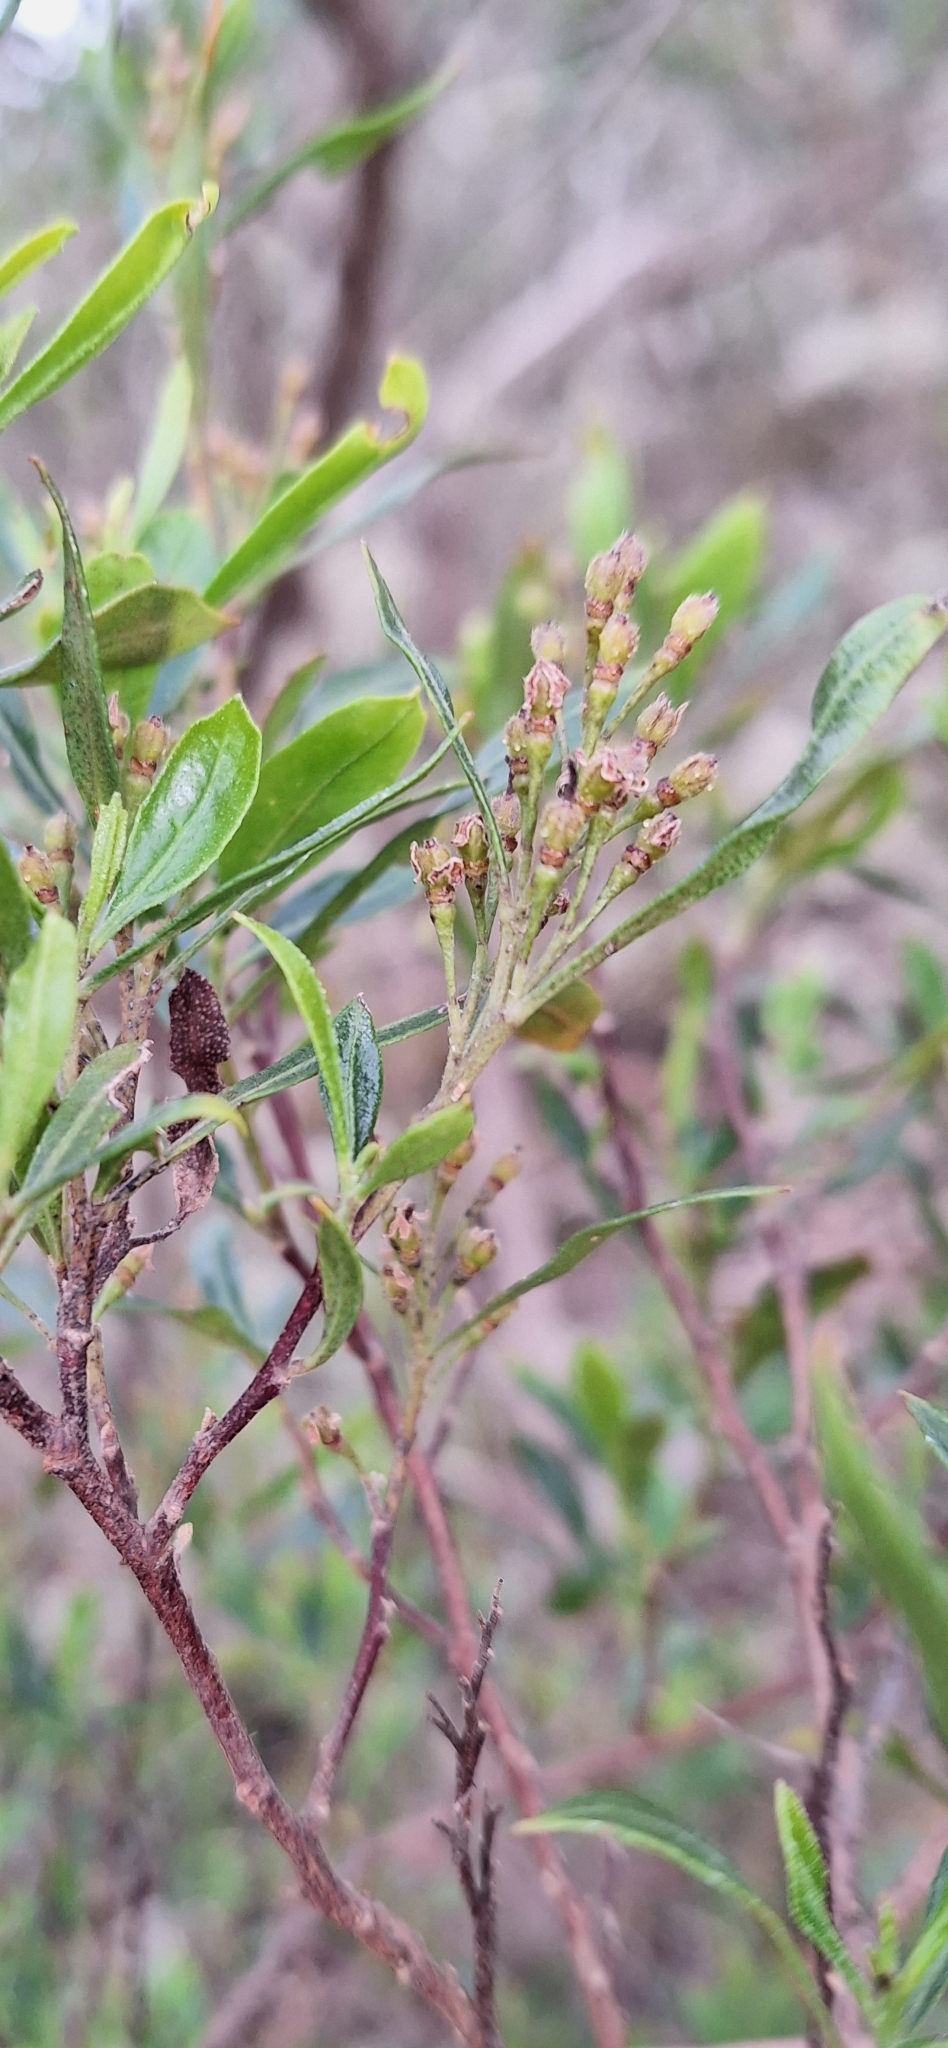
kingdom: Plantae
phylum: Tracheophyta
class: Magnoliopsida
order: Sapindales
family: Sapindaceae
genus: Dodonaea
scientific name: Dodonaea viscosa
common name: Hopbush
